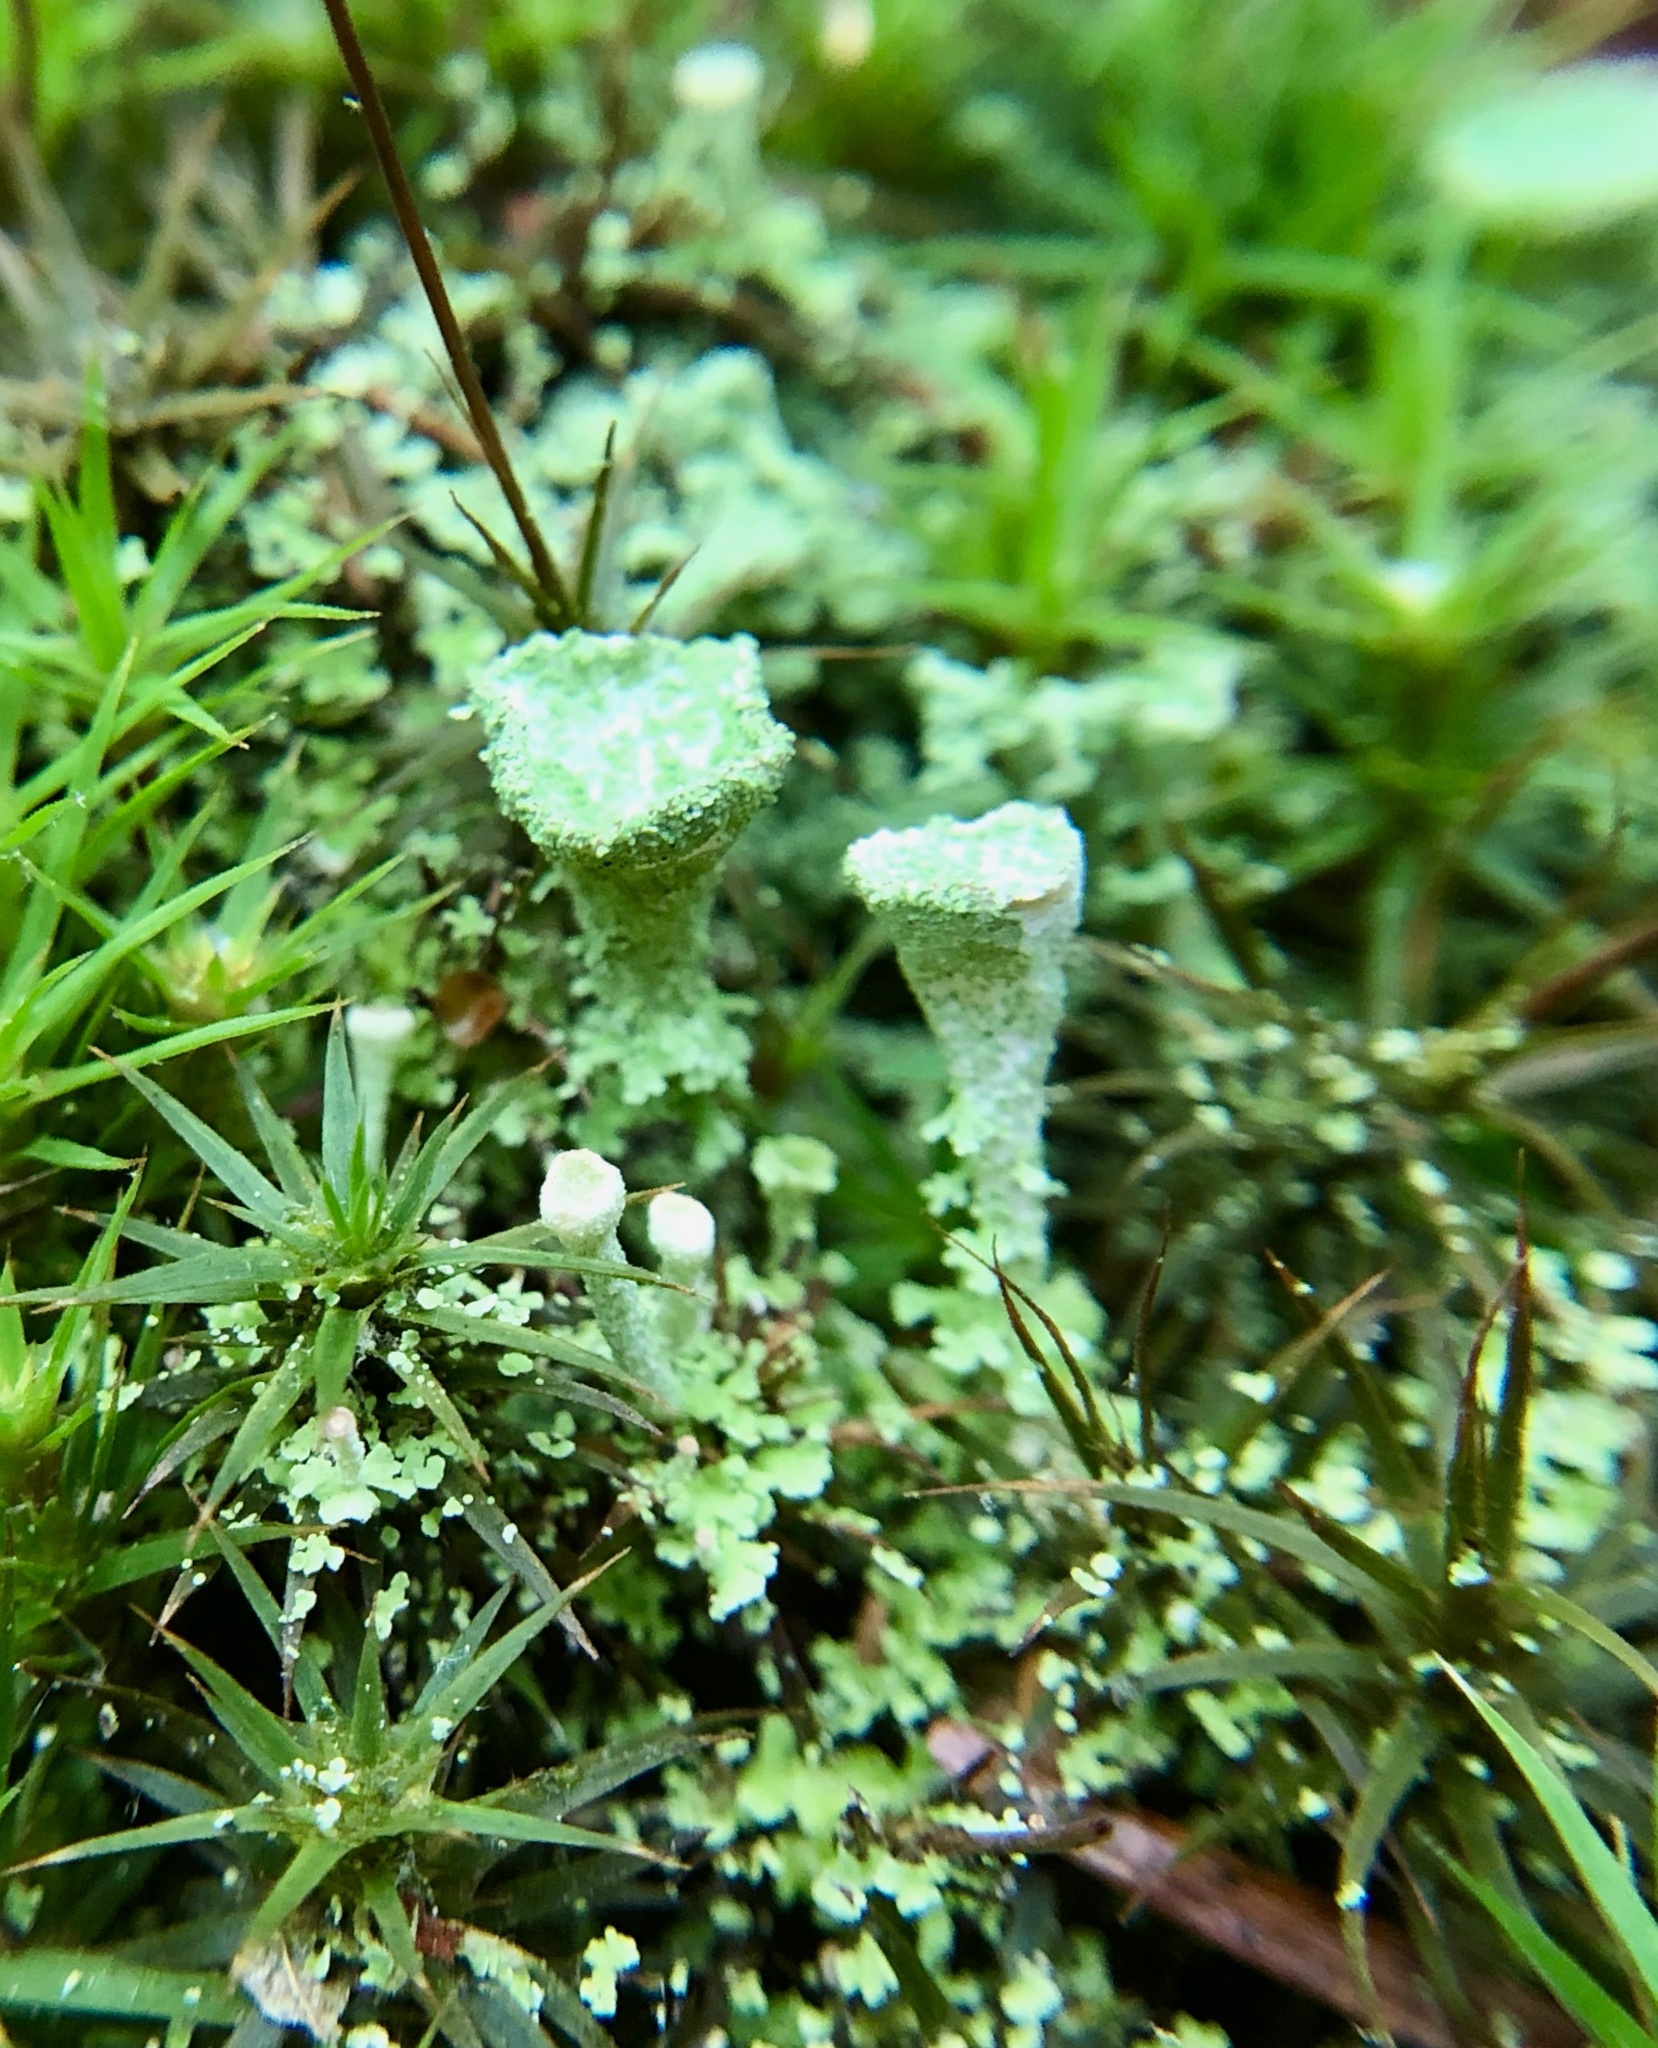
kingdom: Fungi
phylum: Ascomycota
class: Lecanoromycetes
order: Lecanorales
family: Cladoniaceae
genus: Cladonia
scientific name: Cladonia chlorophaea
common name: Mealy pixie cup
